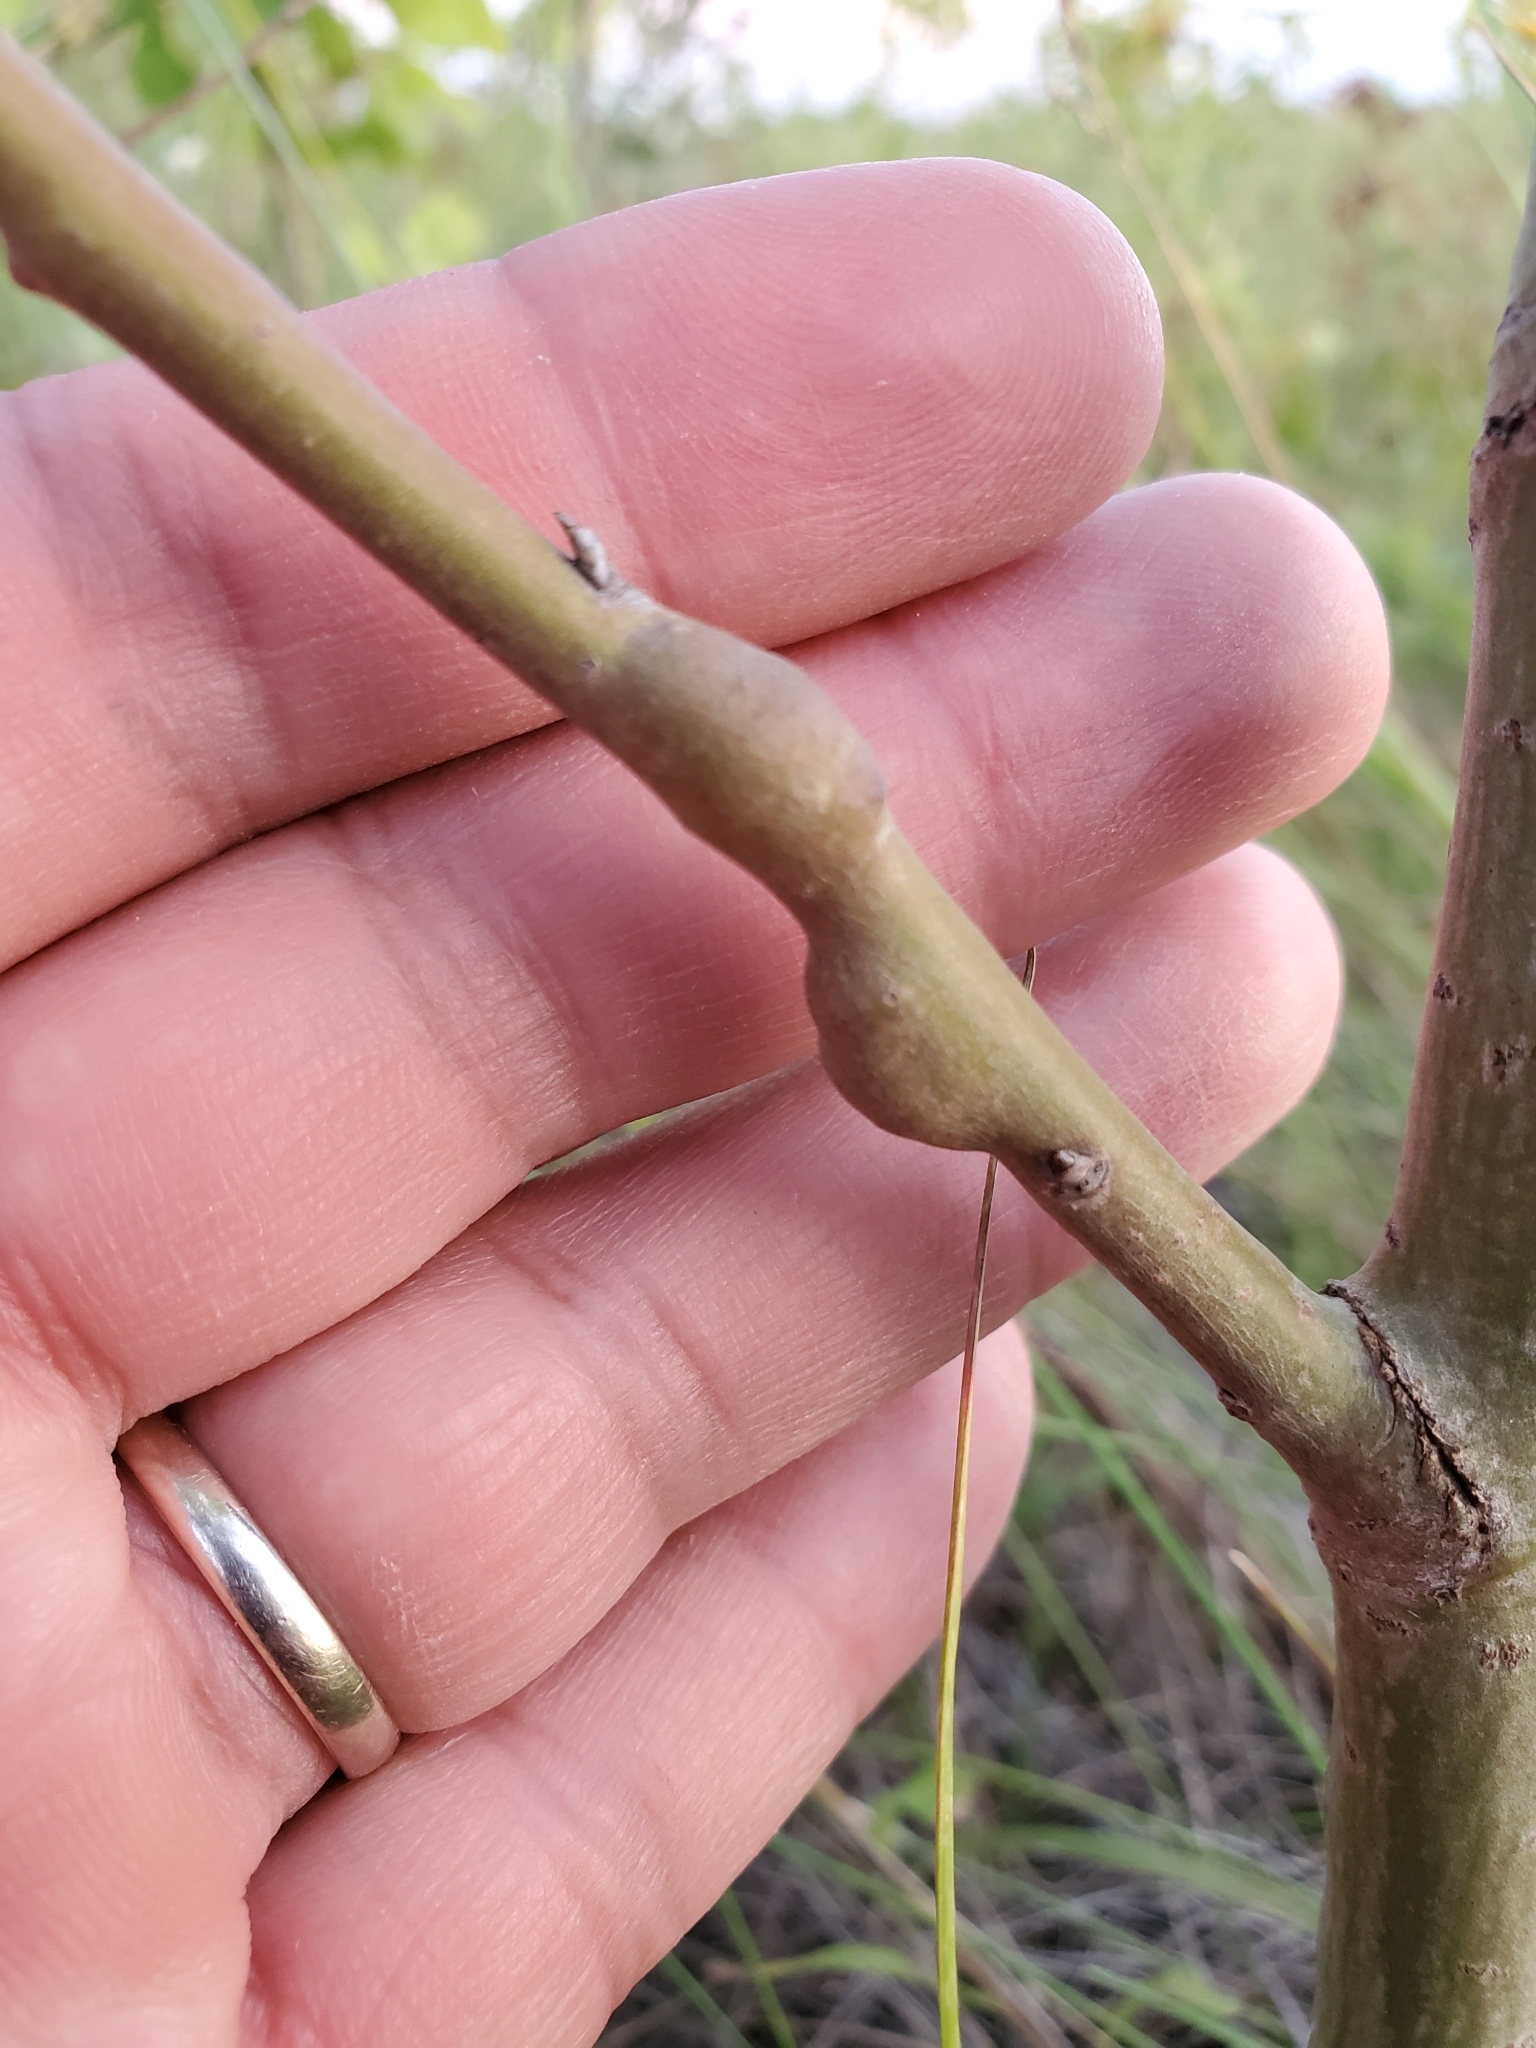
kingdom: Animalia
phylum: Arthropoda
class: Insecta
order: Diptera
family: Agromyzidae
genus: Euhexomyza
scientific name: Euhexomyza schineri
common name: Poplar twiggall fly
